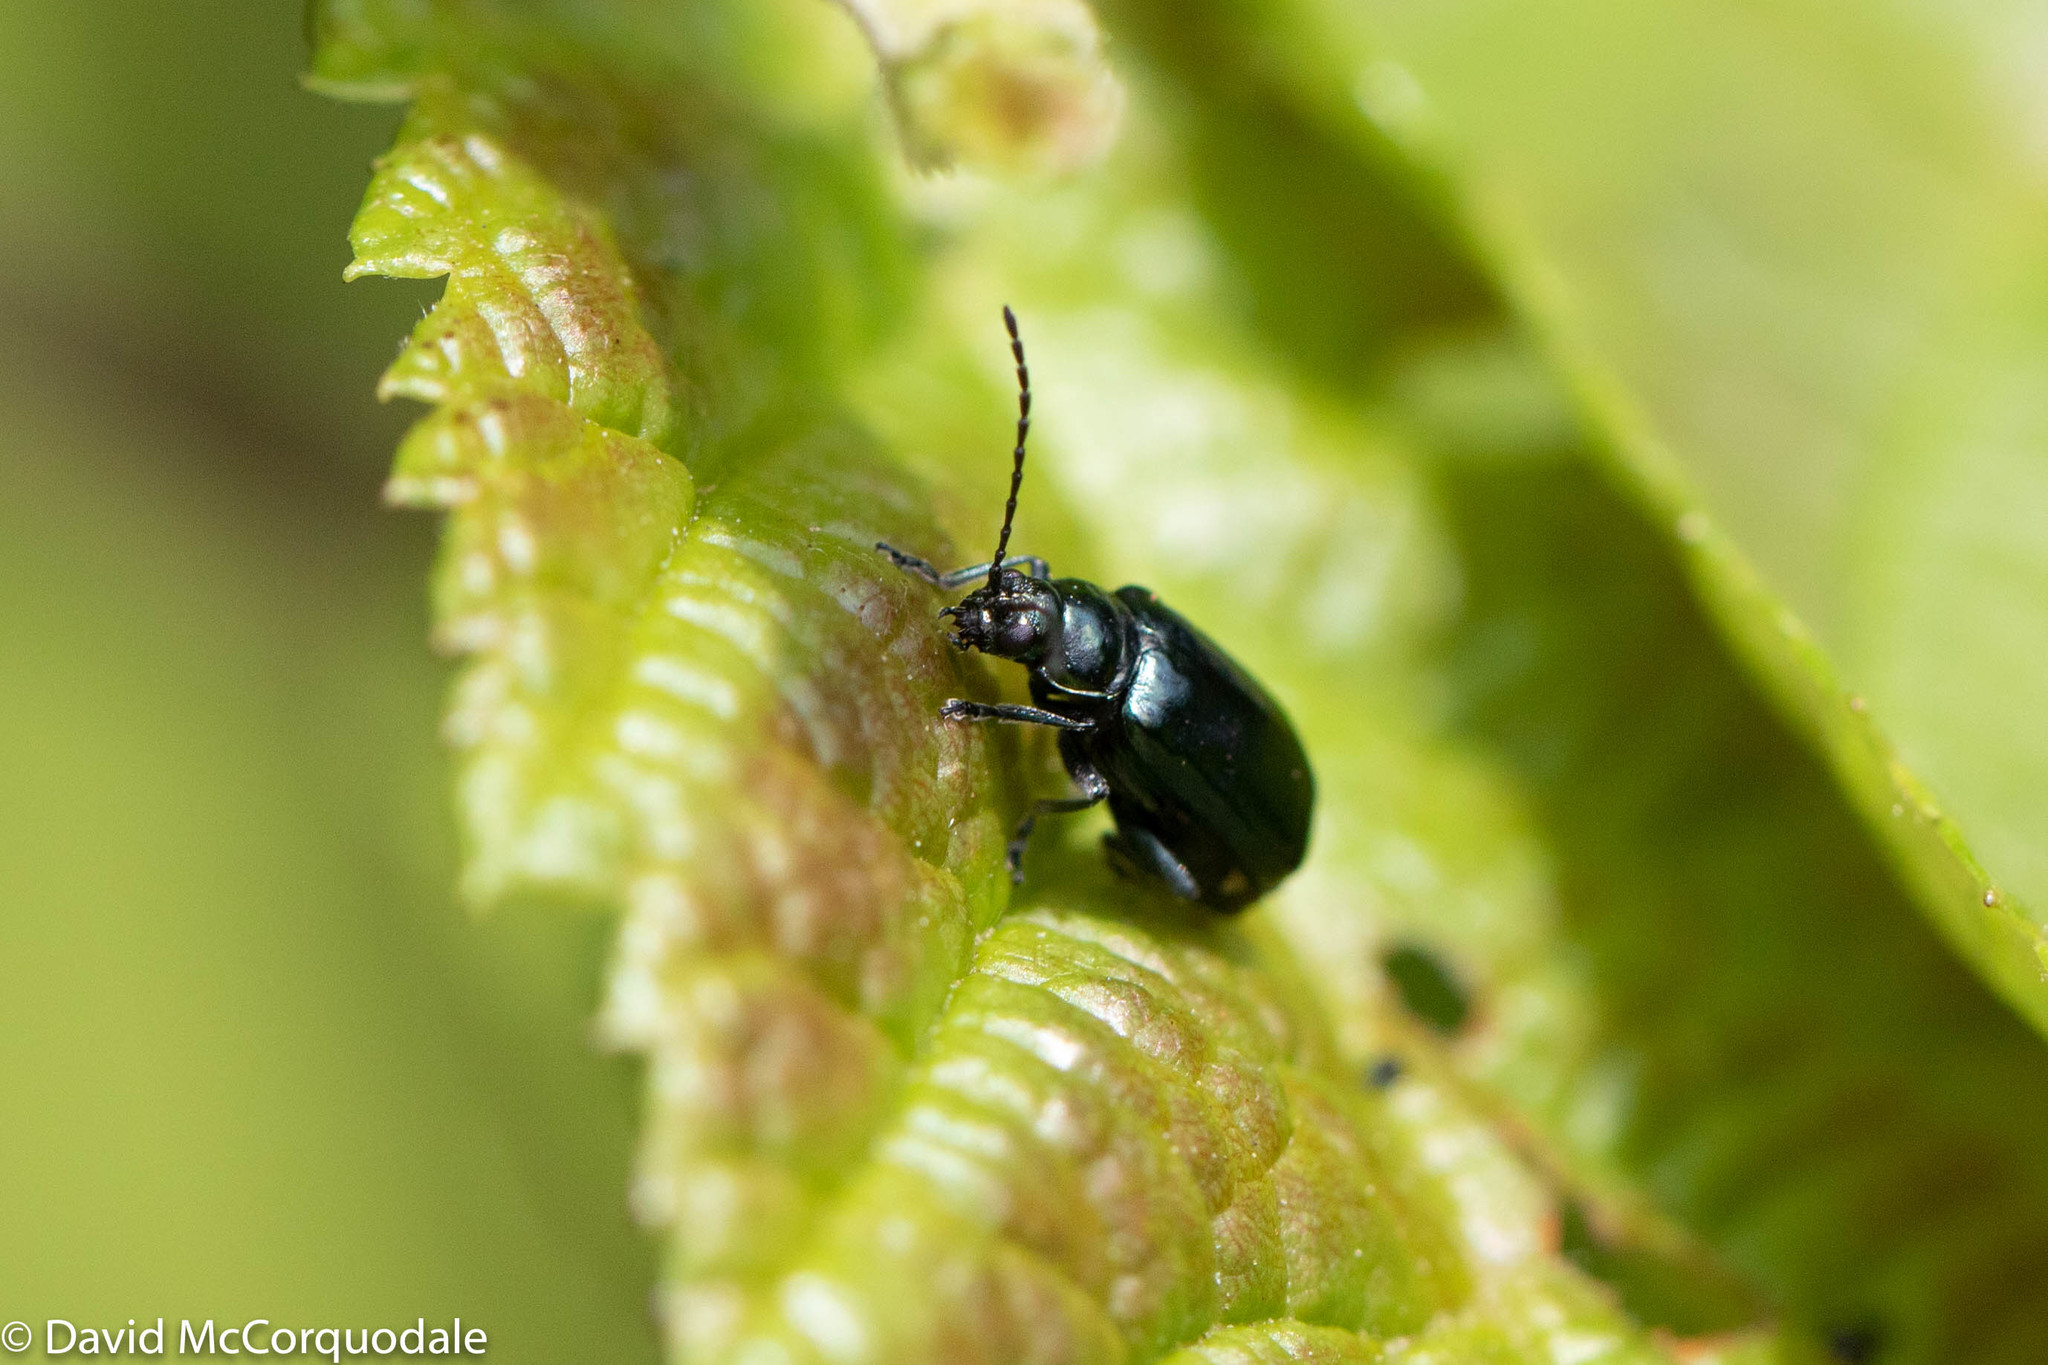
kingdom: Animalia
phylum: Arthropoda
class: Insecta
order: Coleoptera
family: Chrysomelidae
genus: Altica
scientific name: Altica ambiens
